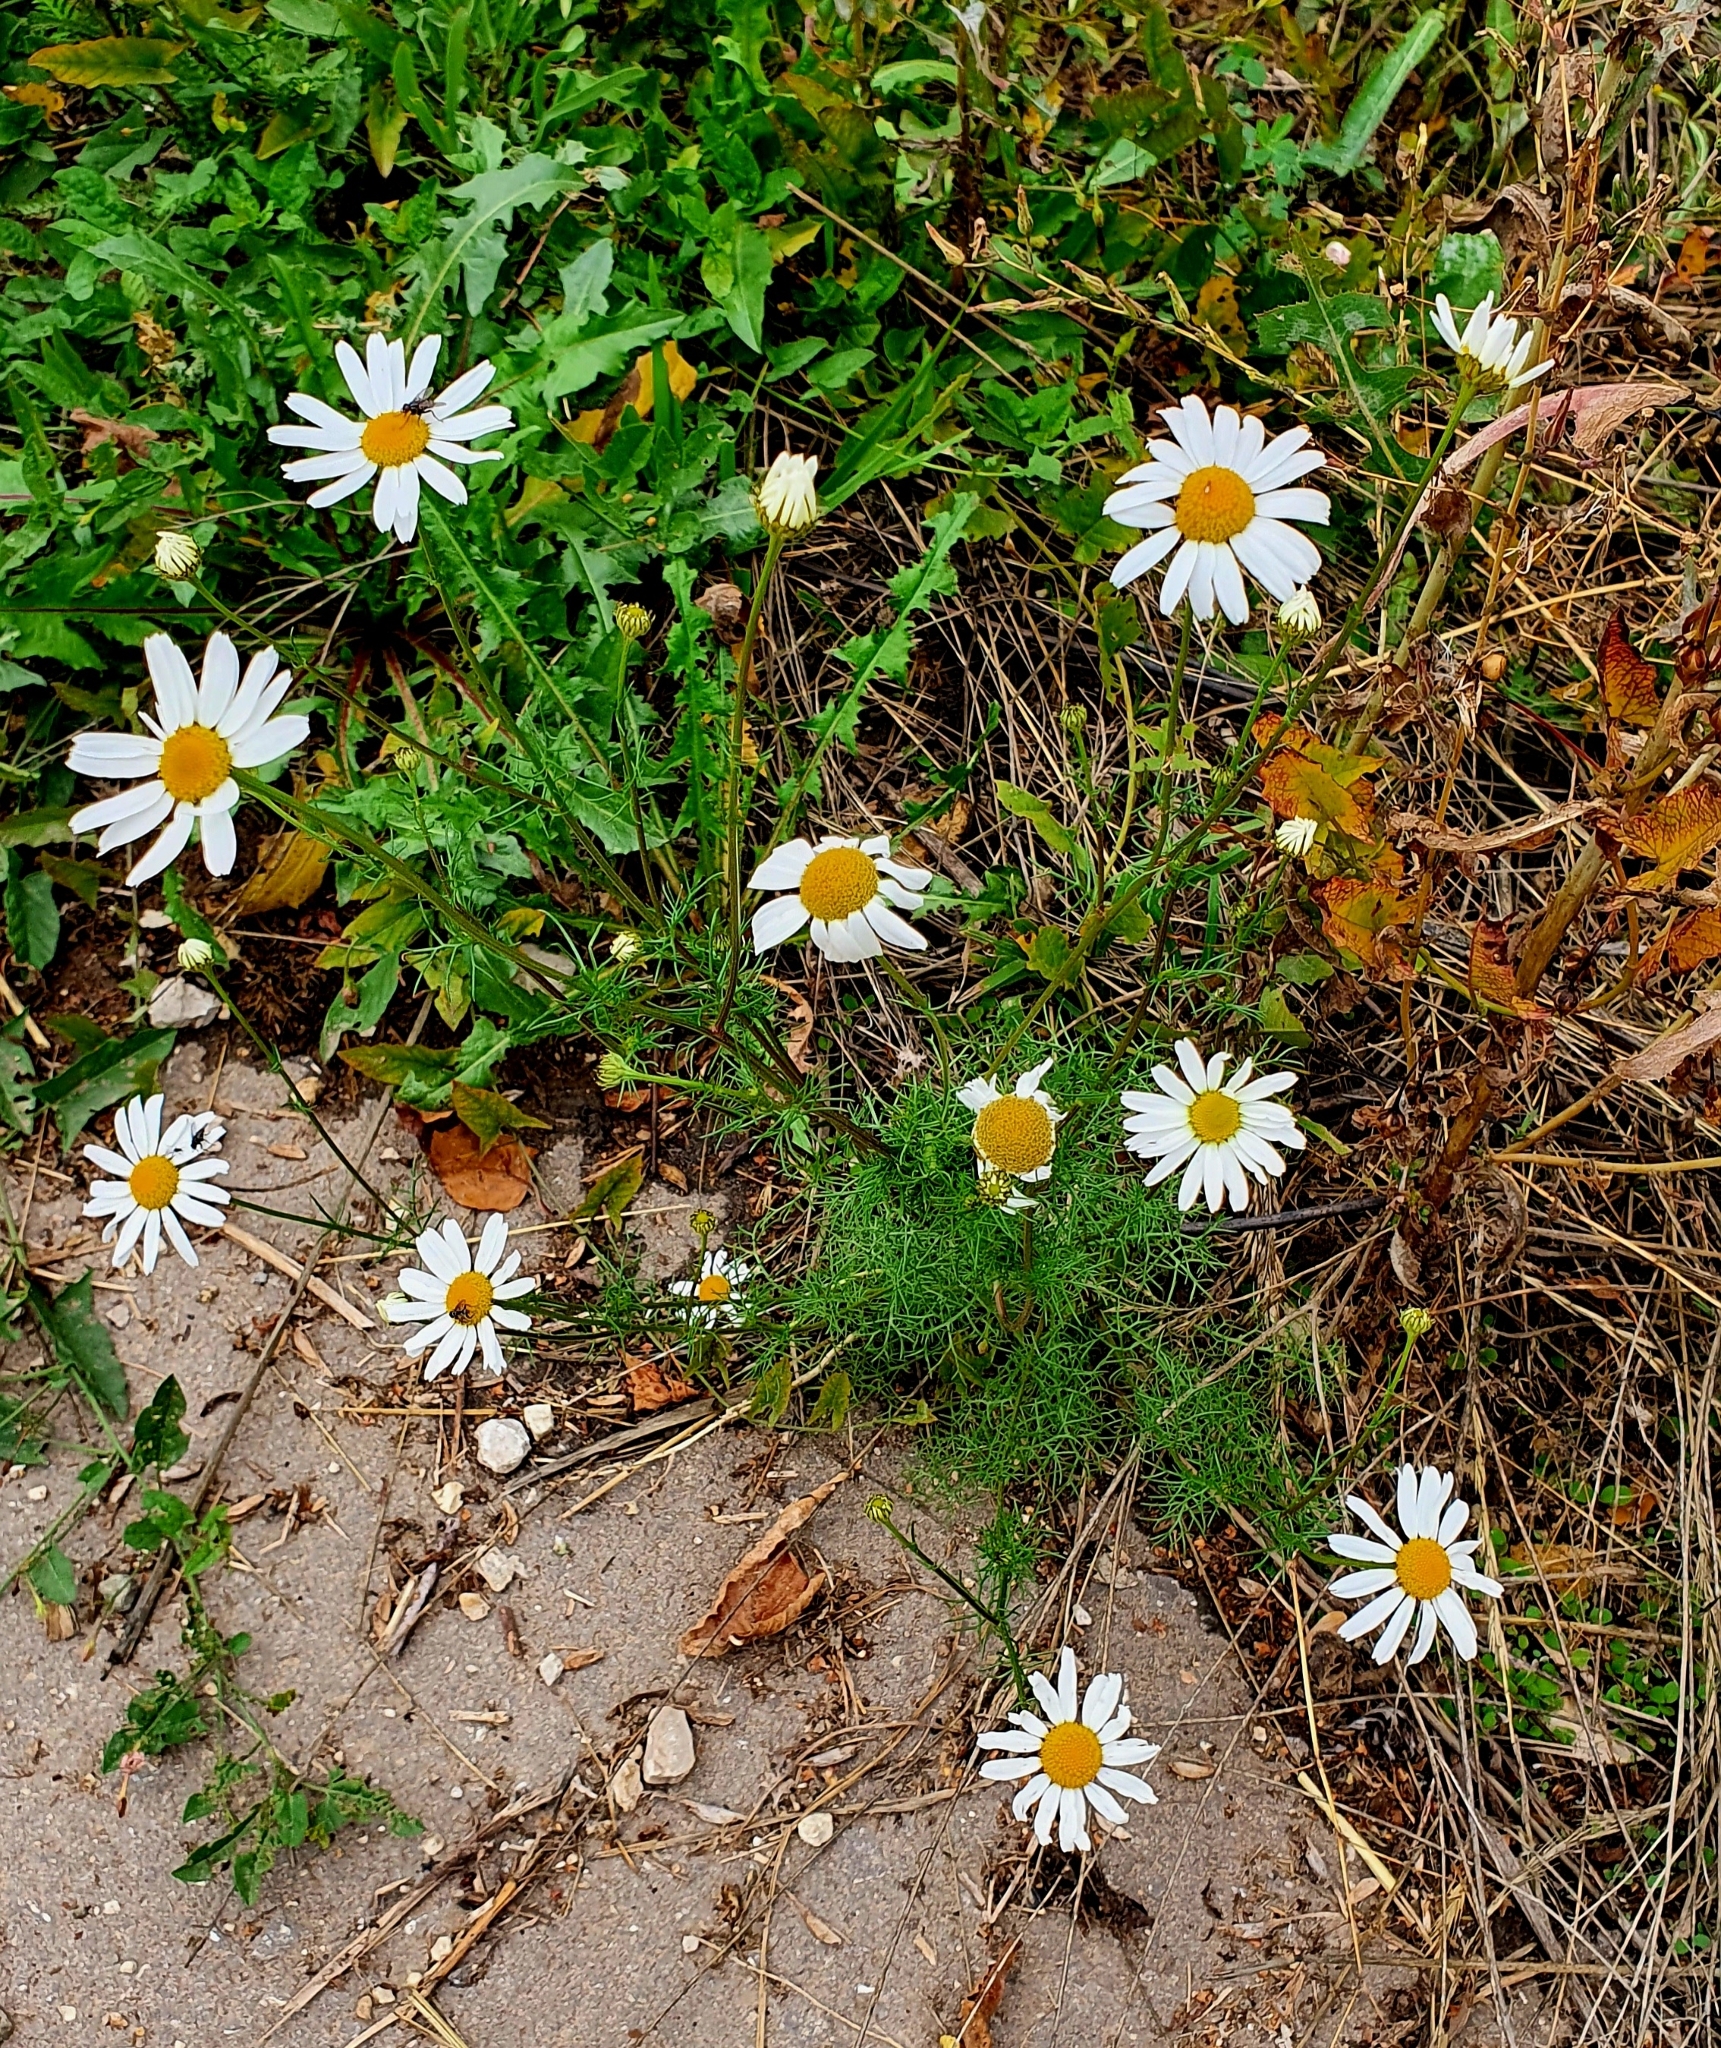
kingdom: Plantae
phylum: Tracheophyta
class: Magnoliopsida
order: Asterales
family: Asteraceae
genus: Tripleurospermum
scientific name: Tripleurospermum inodorum
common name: Scentless mayweed
